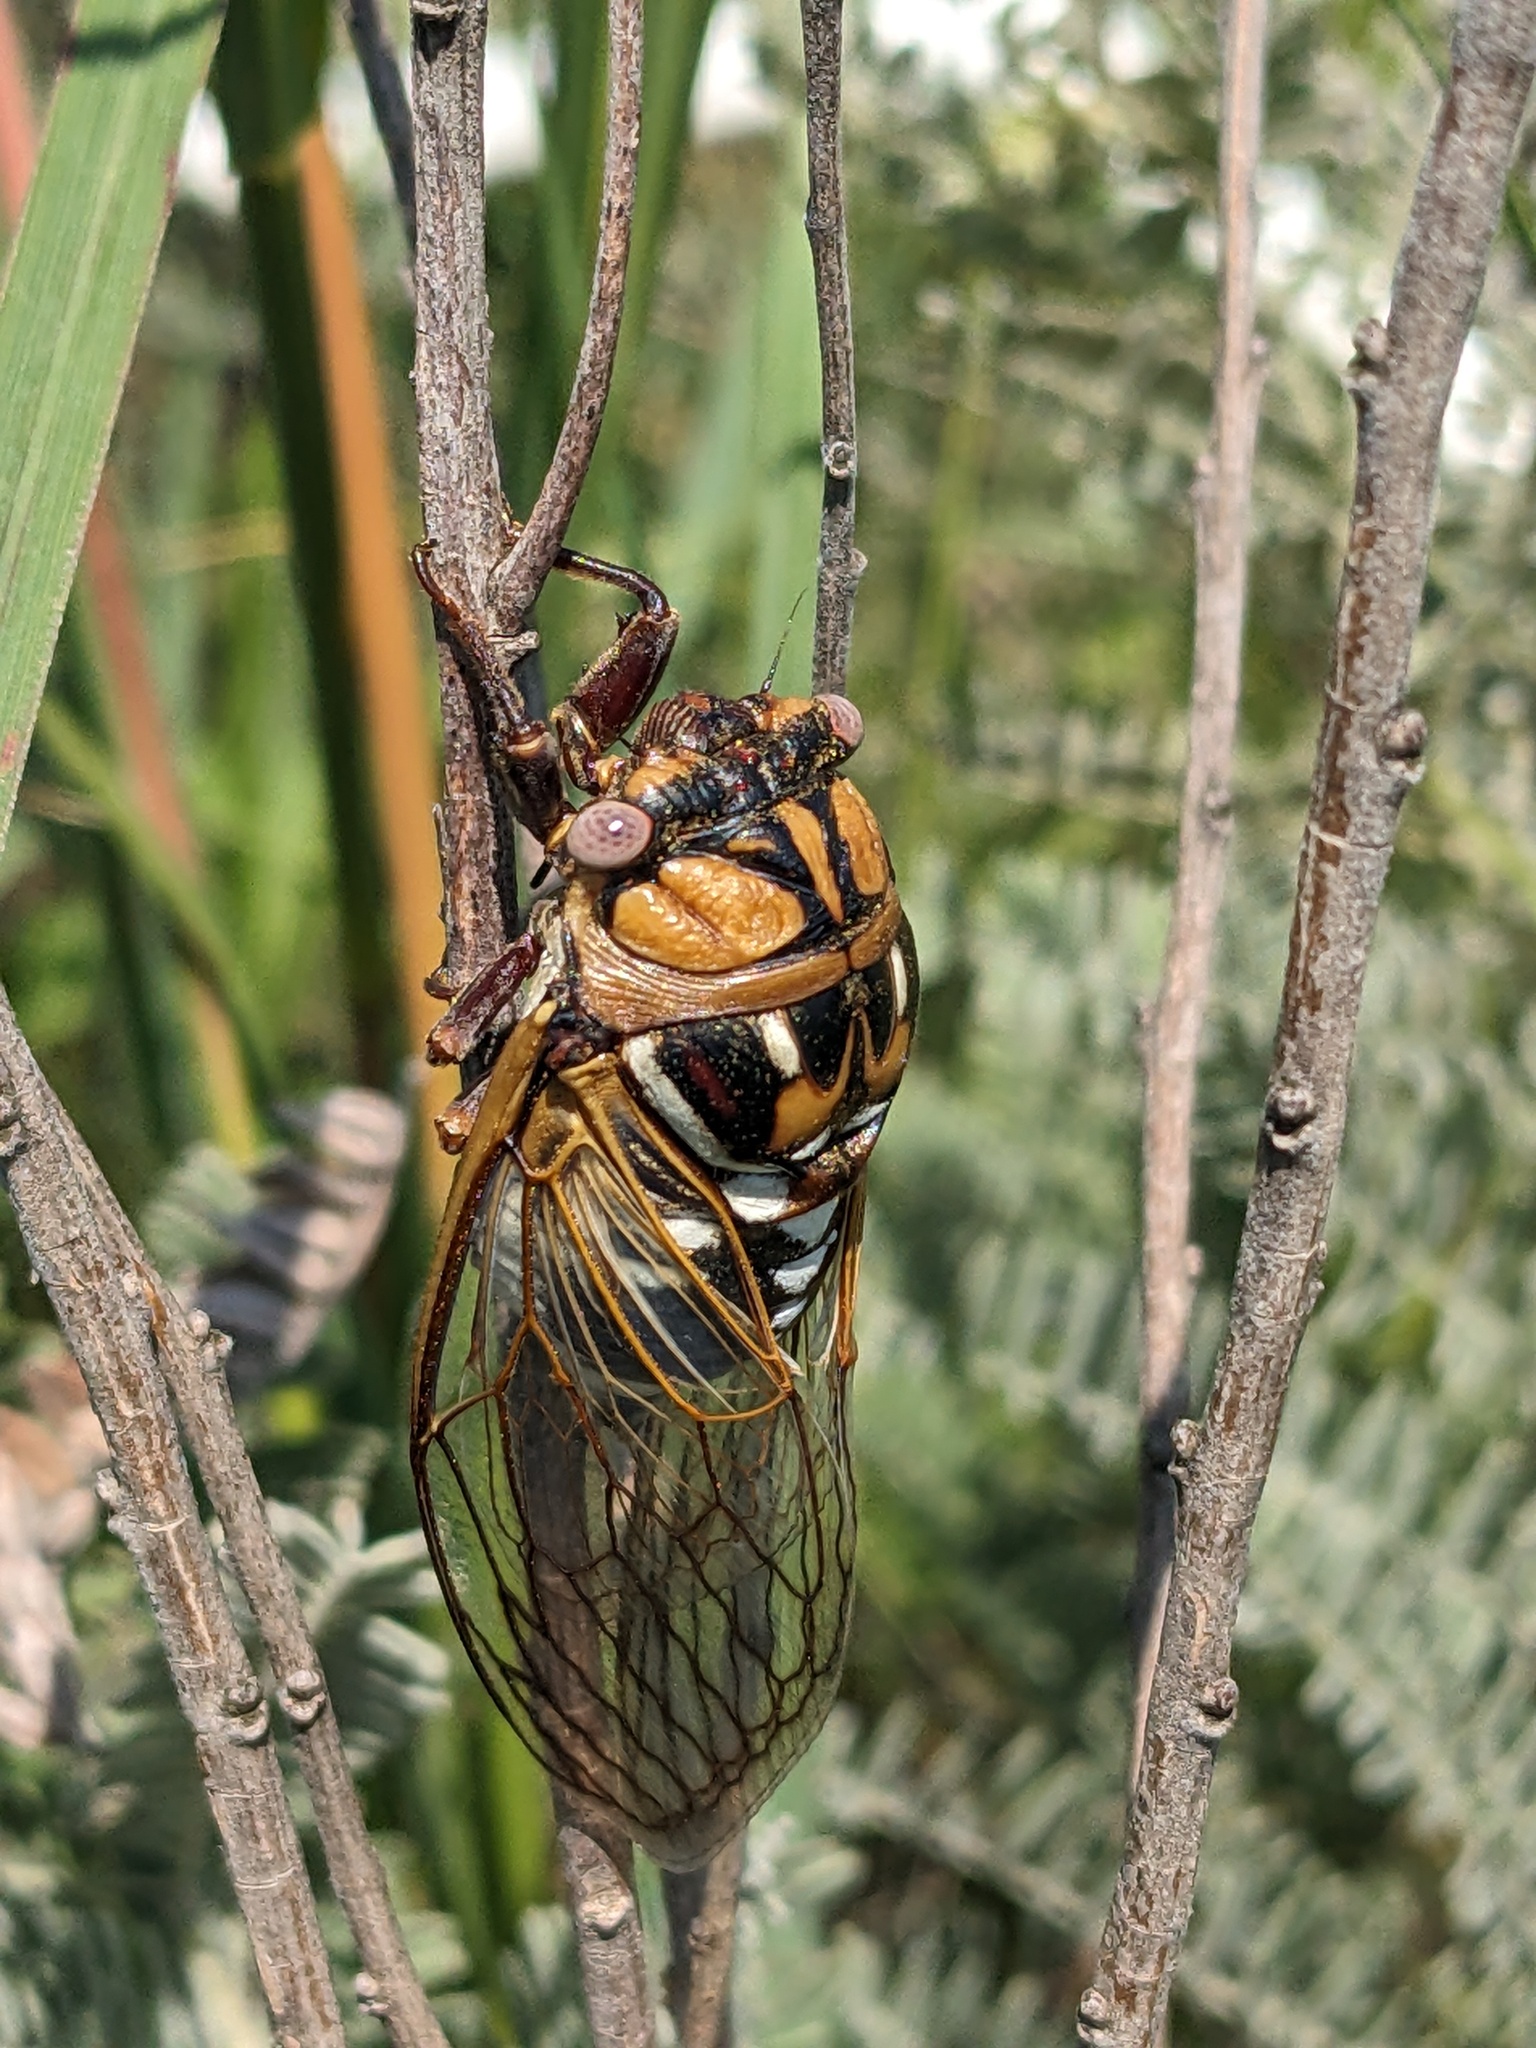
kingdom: Animalia
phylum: Arthropoda
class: Insecta
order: Hemiptera
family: Cicadidae
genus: Megatibicen
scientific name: Megatibicen dorsatus
